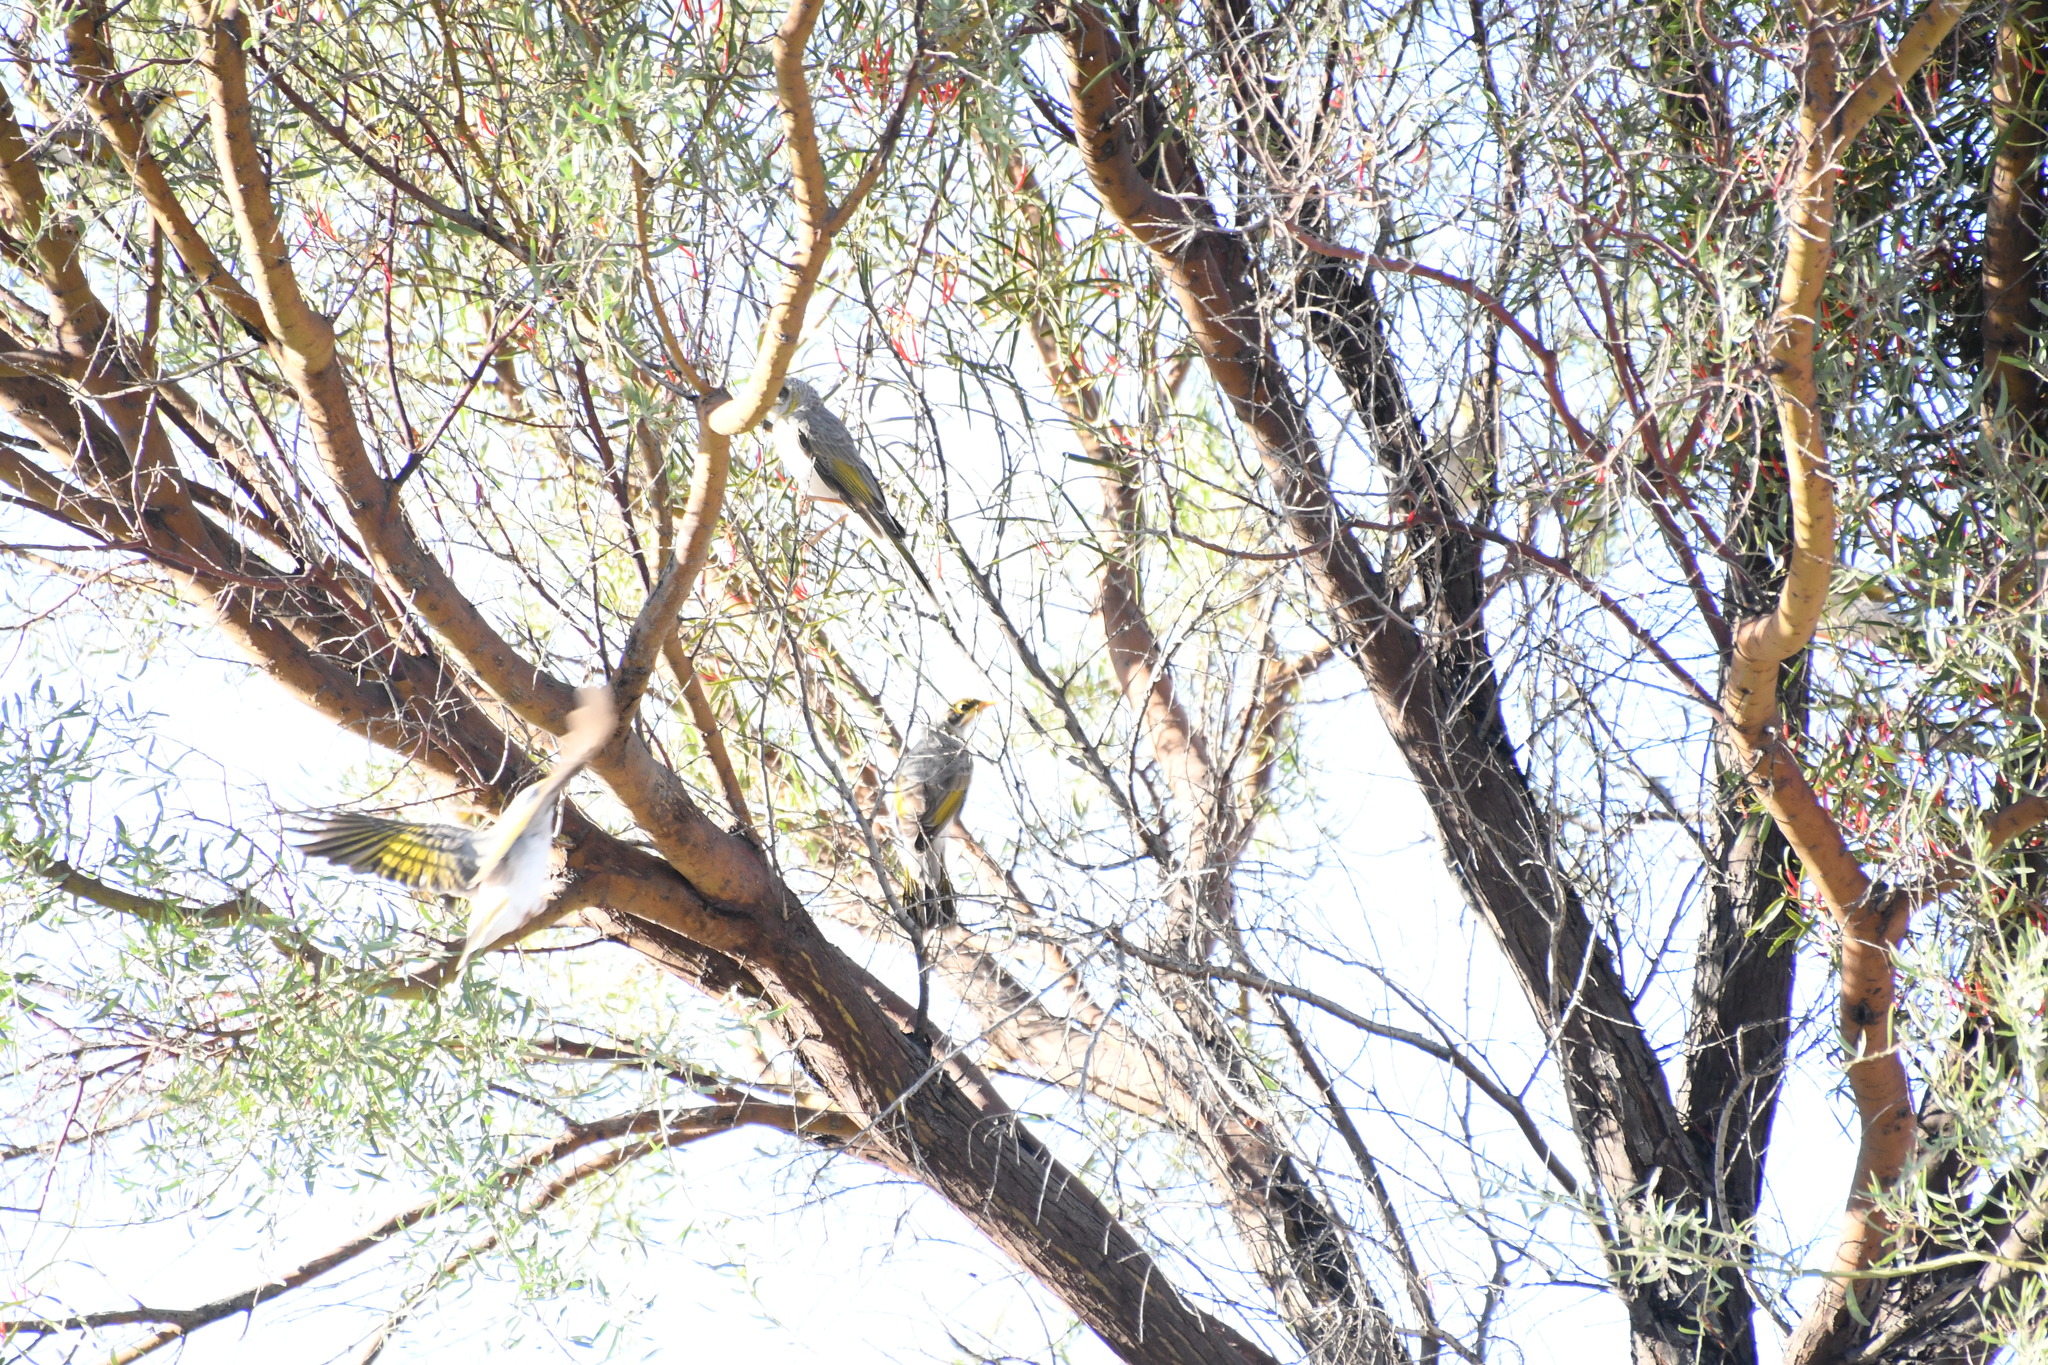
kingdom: Animalia
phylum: Chordata
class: Aves
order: Passeriformes
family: Meliphagidae
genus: Manorina
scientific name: Manorina flavigula
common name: Yellow-throated miner
